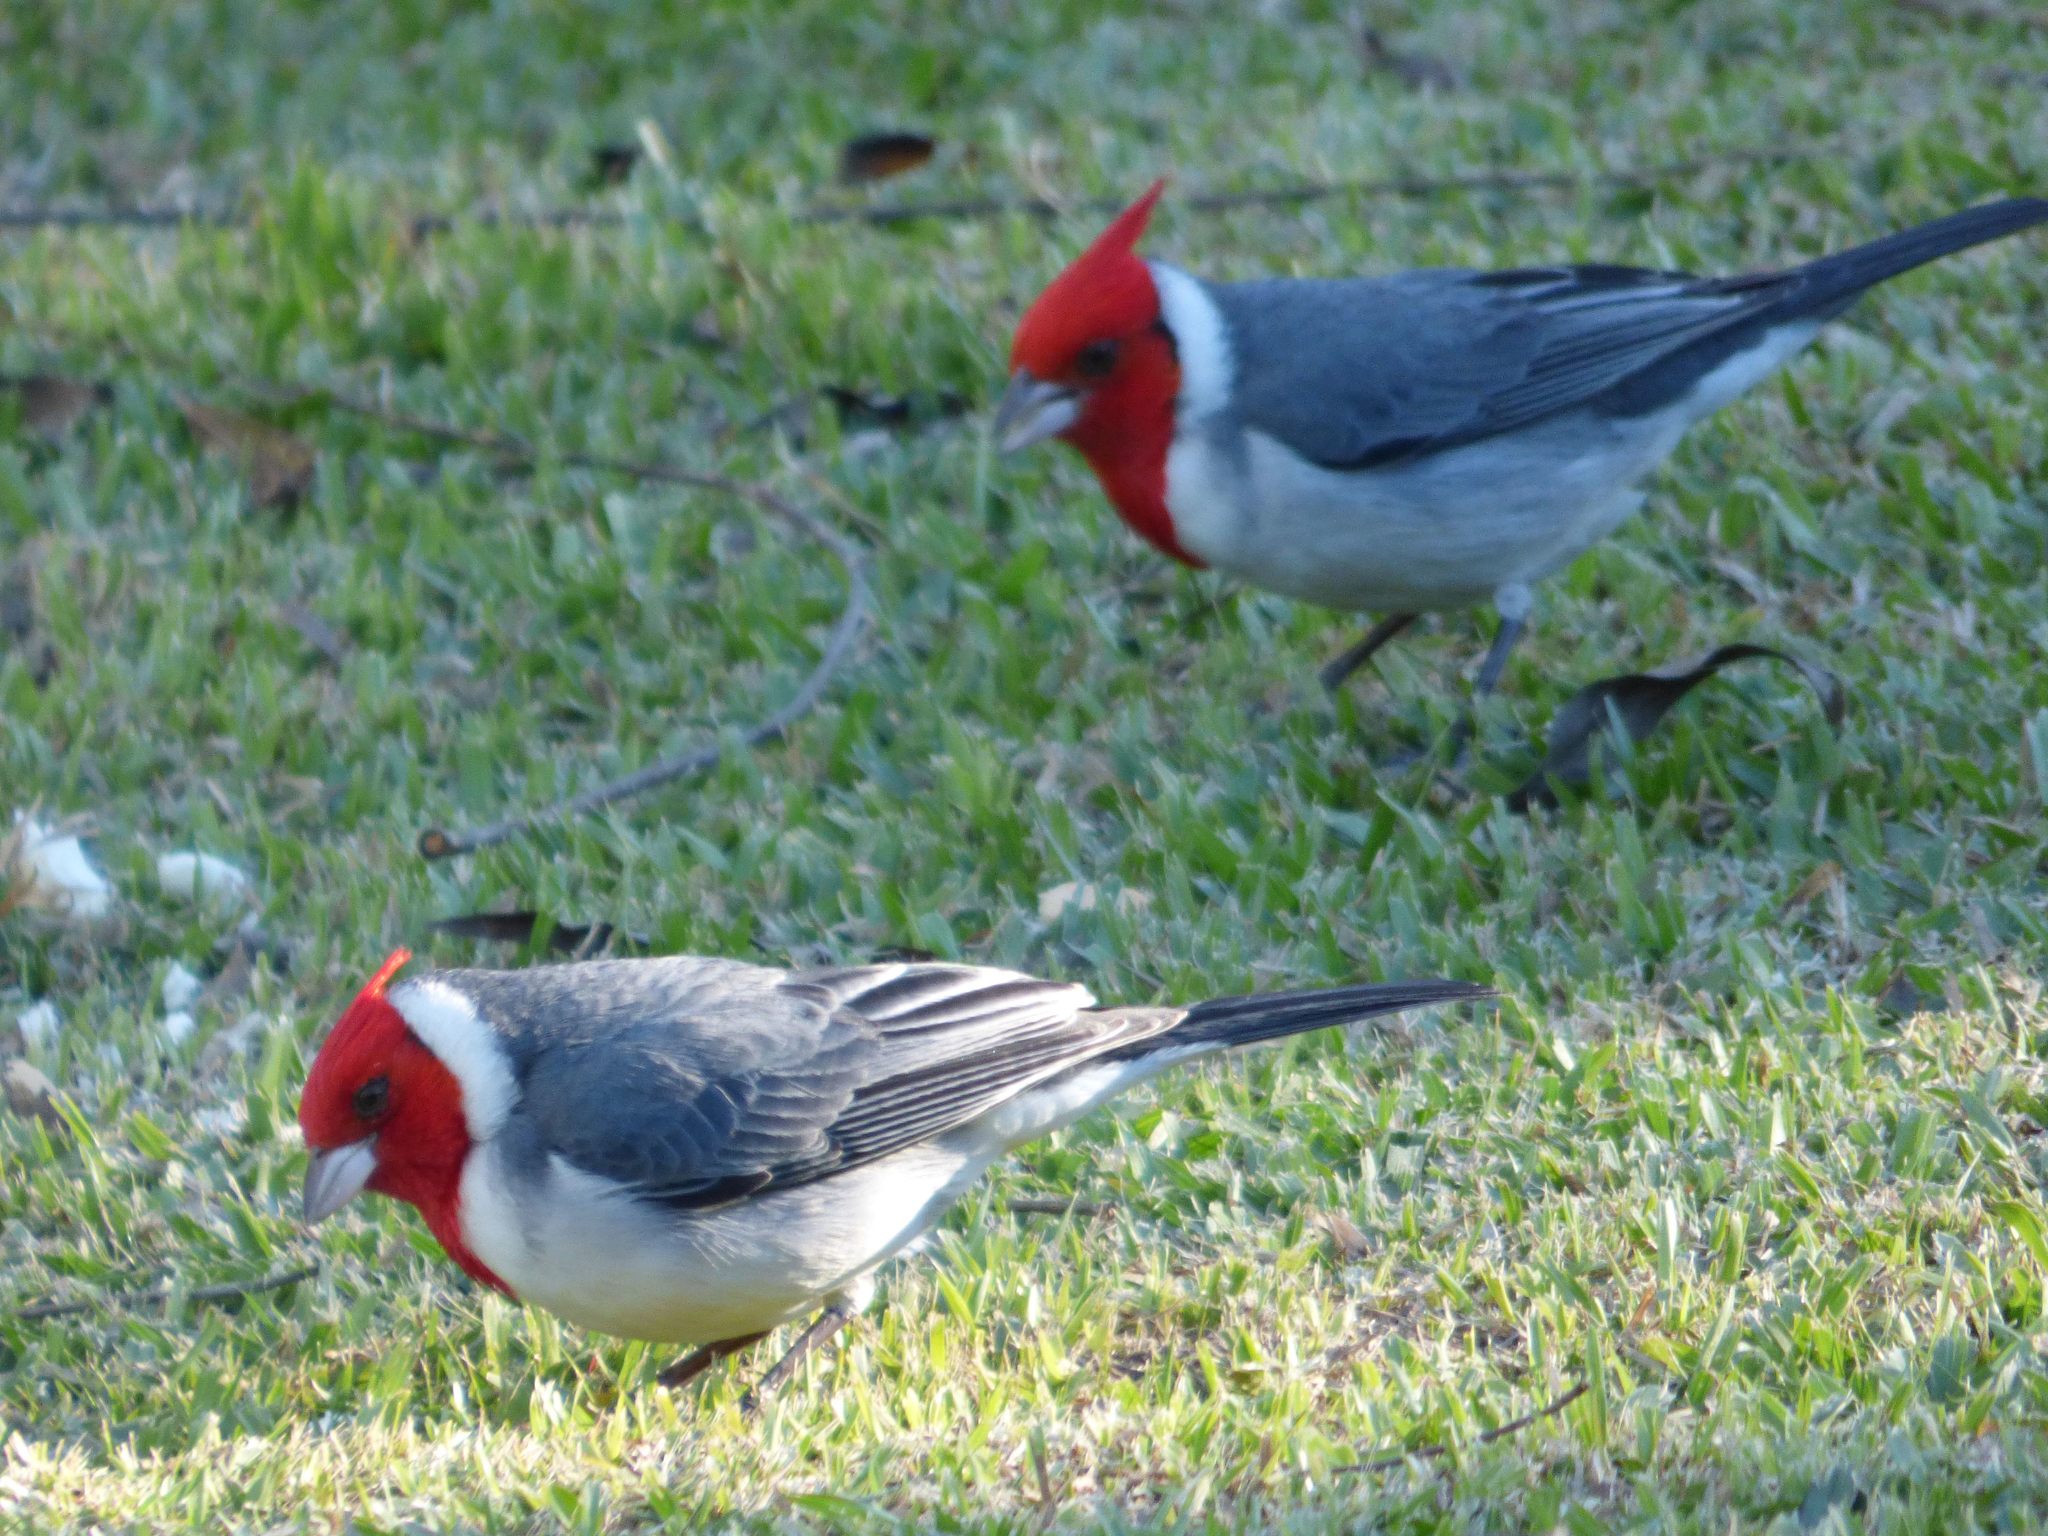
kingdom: Animalia
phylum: Chordata
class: Aves
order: Passeriformes
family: Thraupidae
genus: Paroaria
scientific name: Paroaria coronata
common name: Red-crested cardinal
